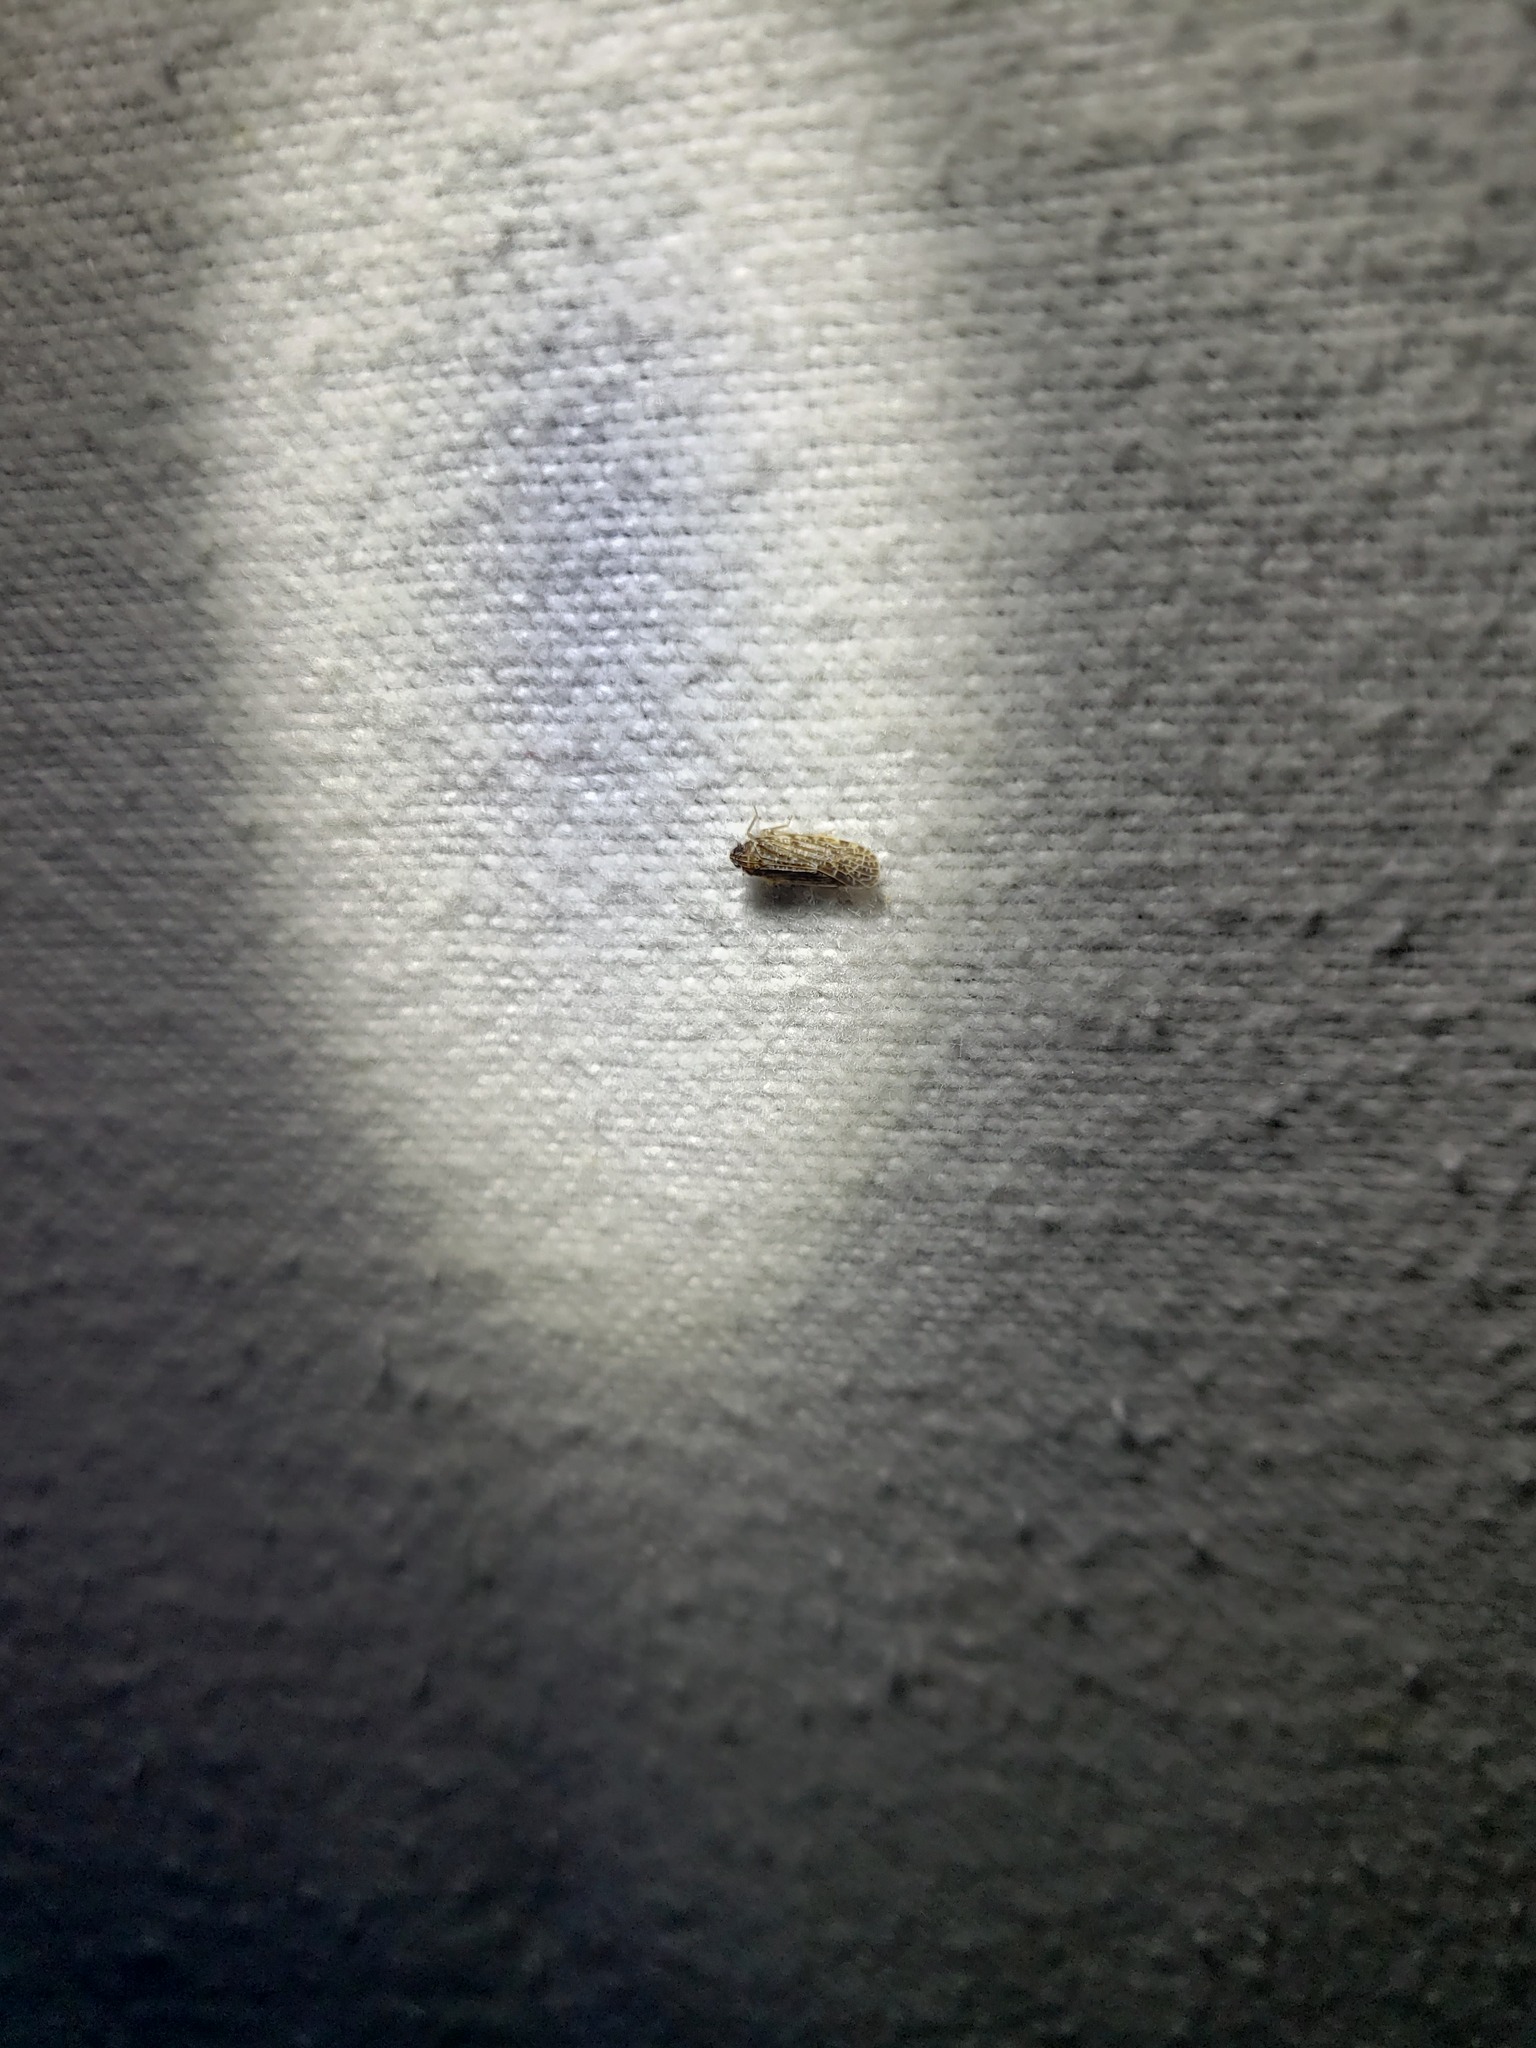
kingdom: Animalia
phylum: Arthropoda
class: Insecta
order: Hemiptera
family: Achilidae
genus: Synecdoche
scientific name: Synecdoche grisea
